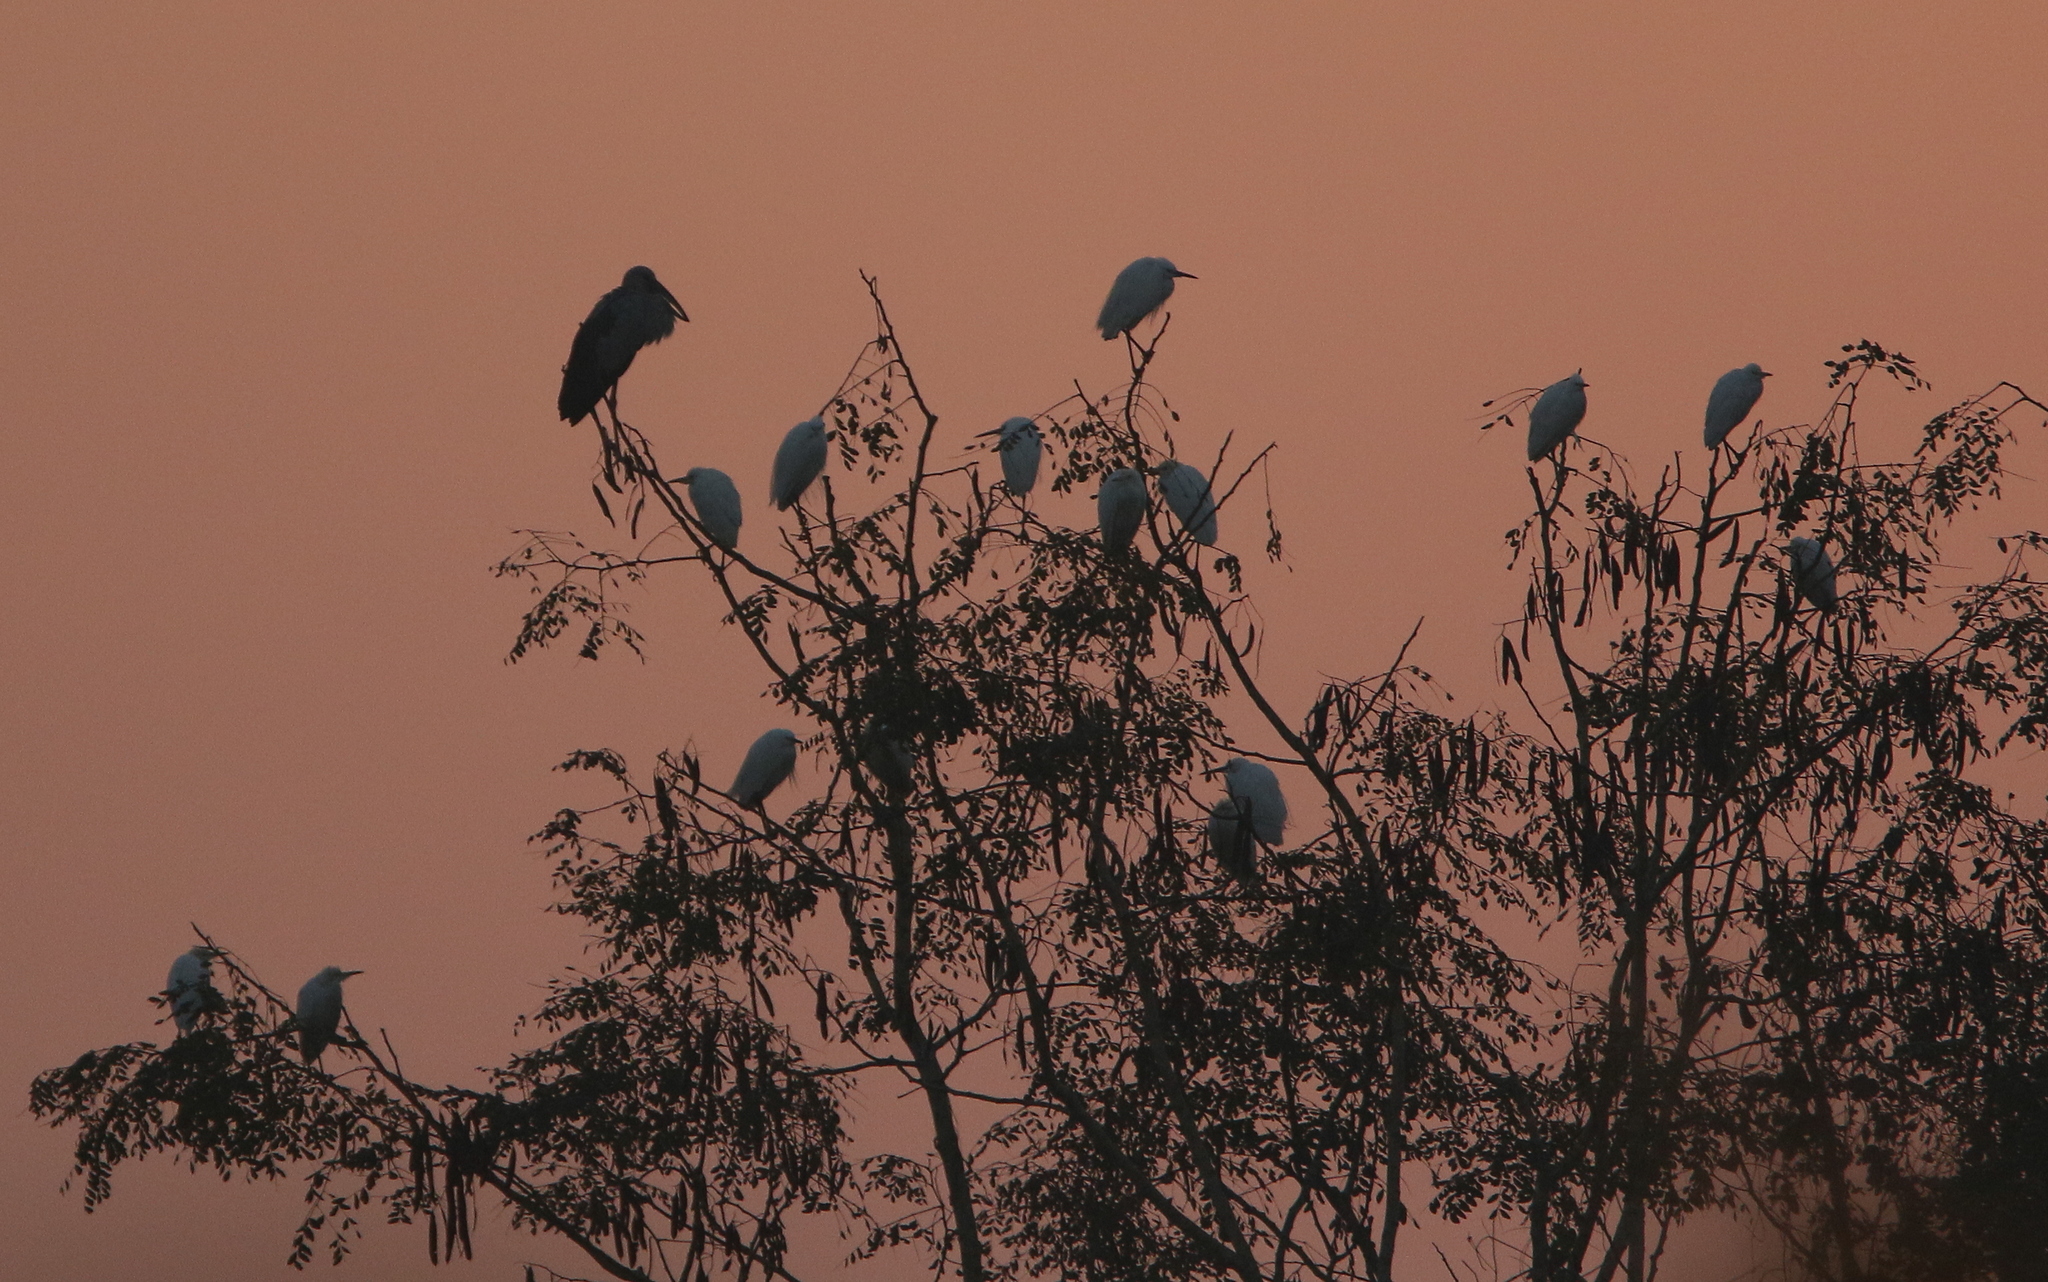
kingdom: Animalia
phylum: Chordata
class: Aves
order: Ciconiiformes
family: Ciconiidae
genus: Anastomus
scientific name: Anastomus oscitans
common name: Asian openbill
